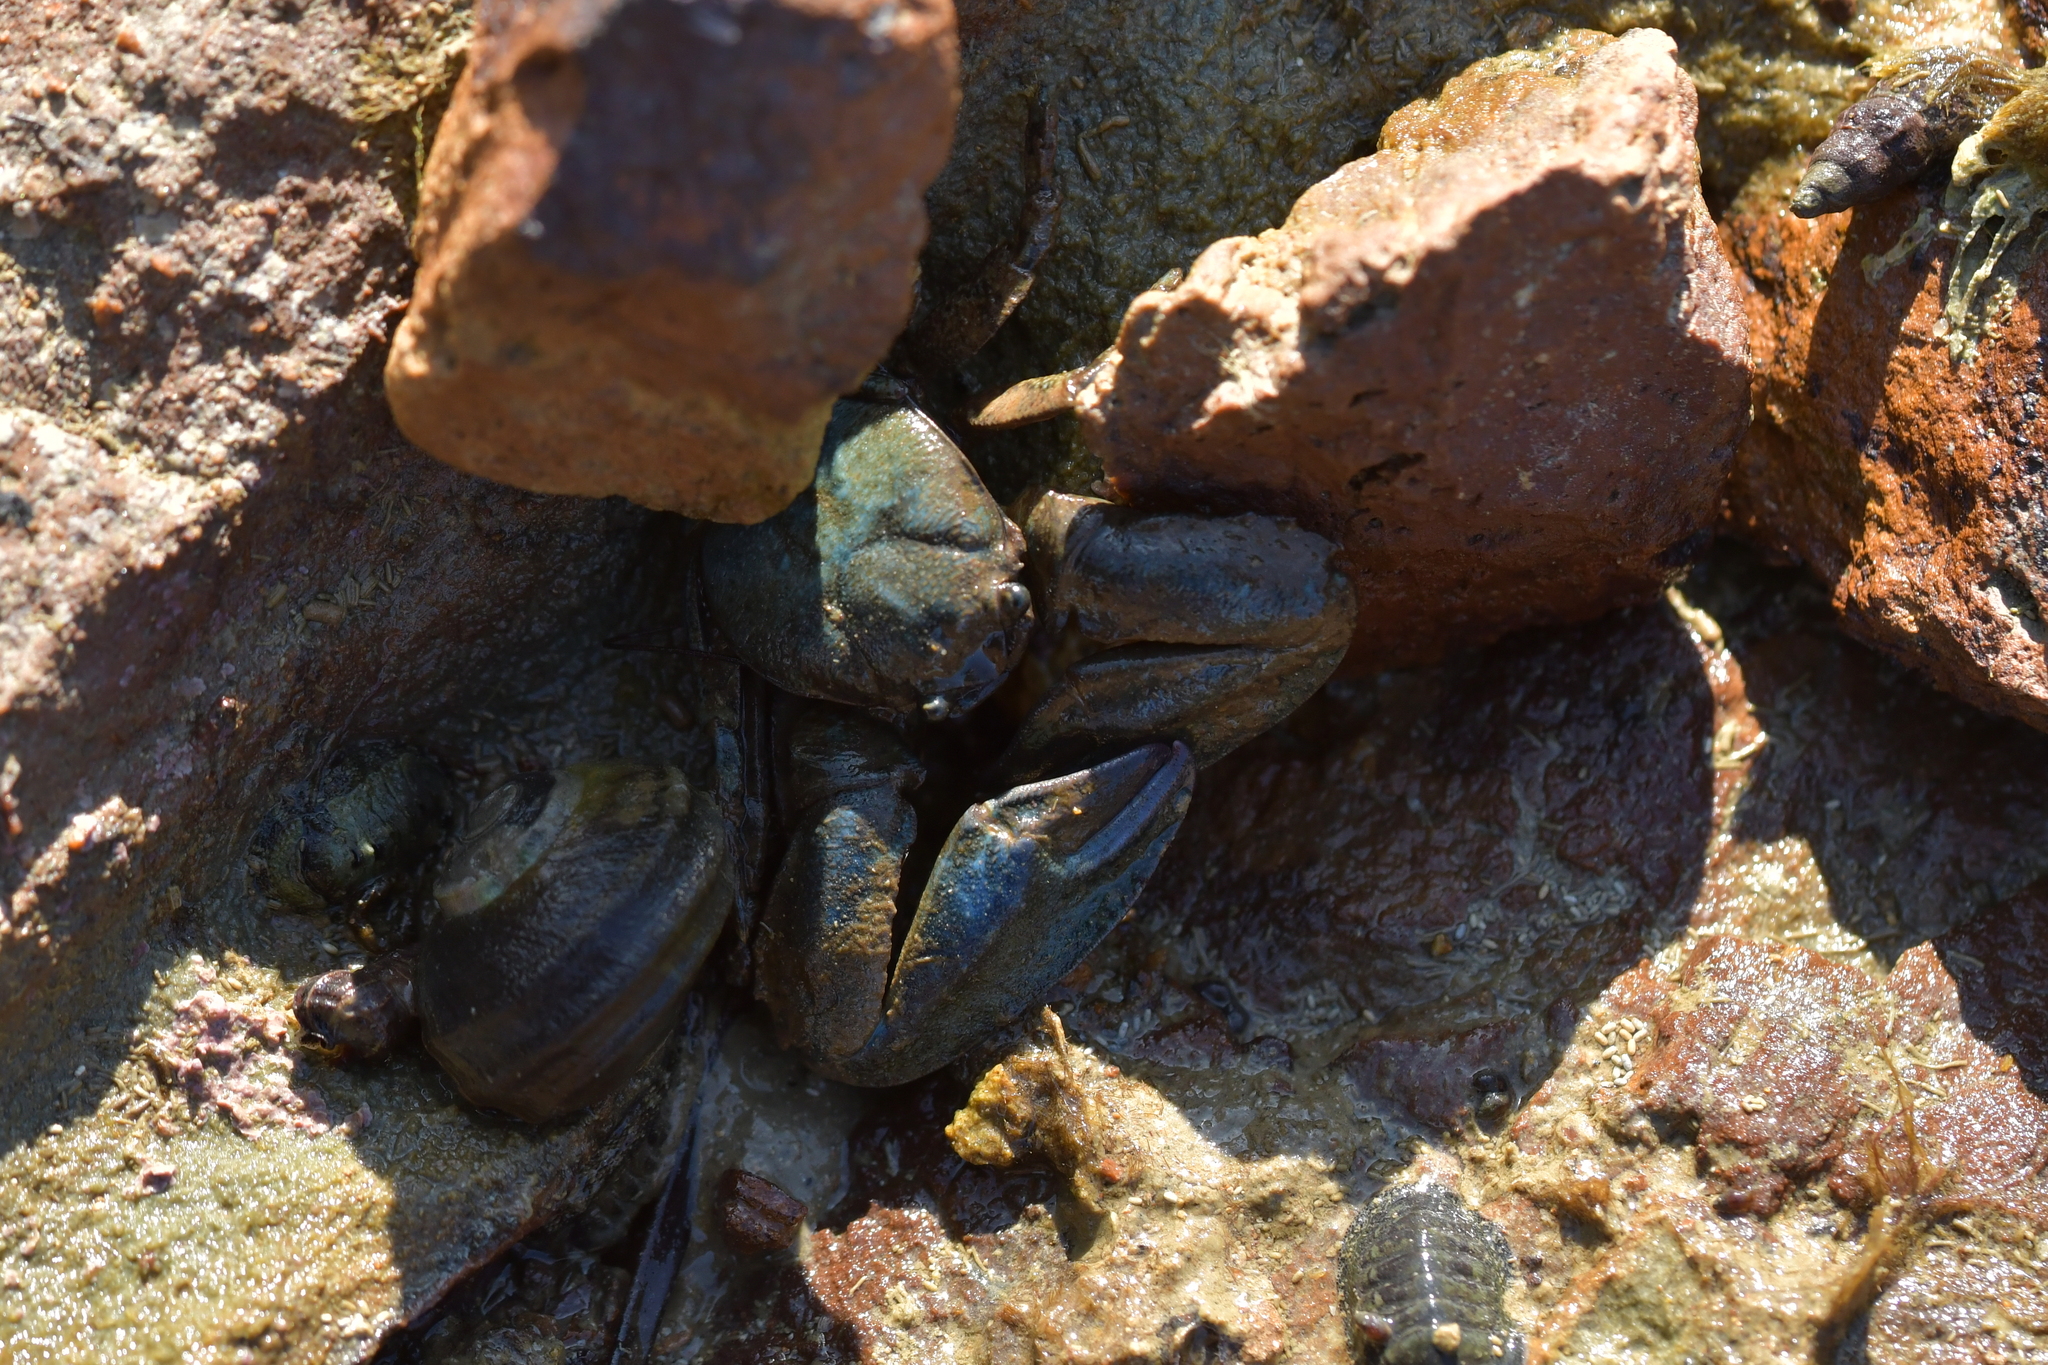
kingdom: Animalia
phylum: Arthropoda
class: Malacostraca
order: Decapoda
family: Porcellanidae
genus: Petrolisthes
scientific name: Petrolisthes elongatus
